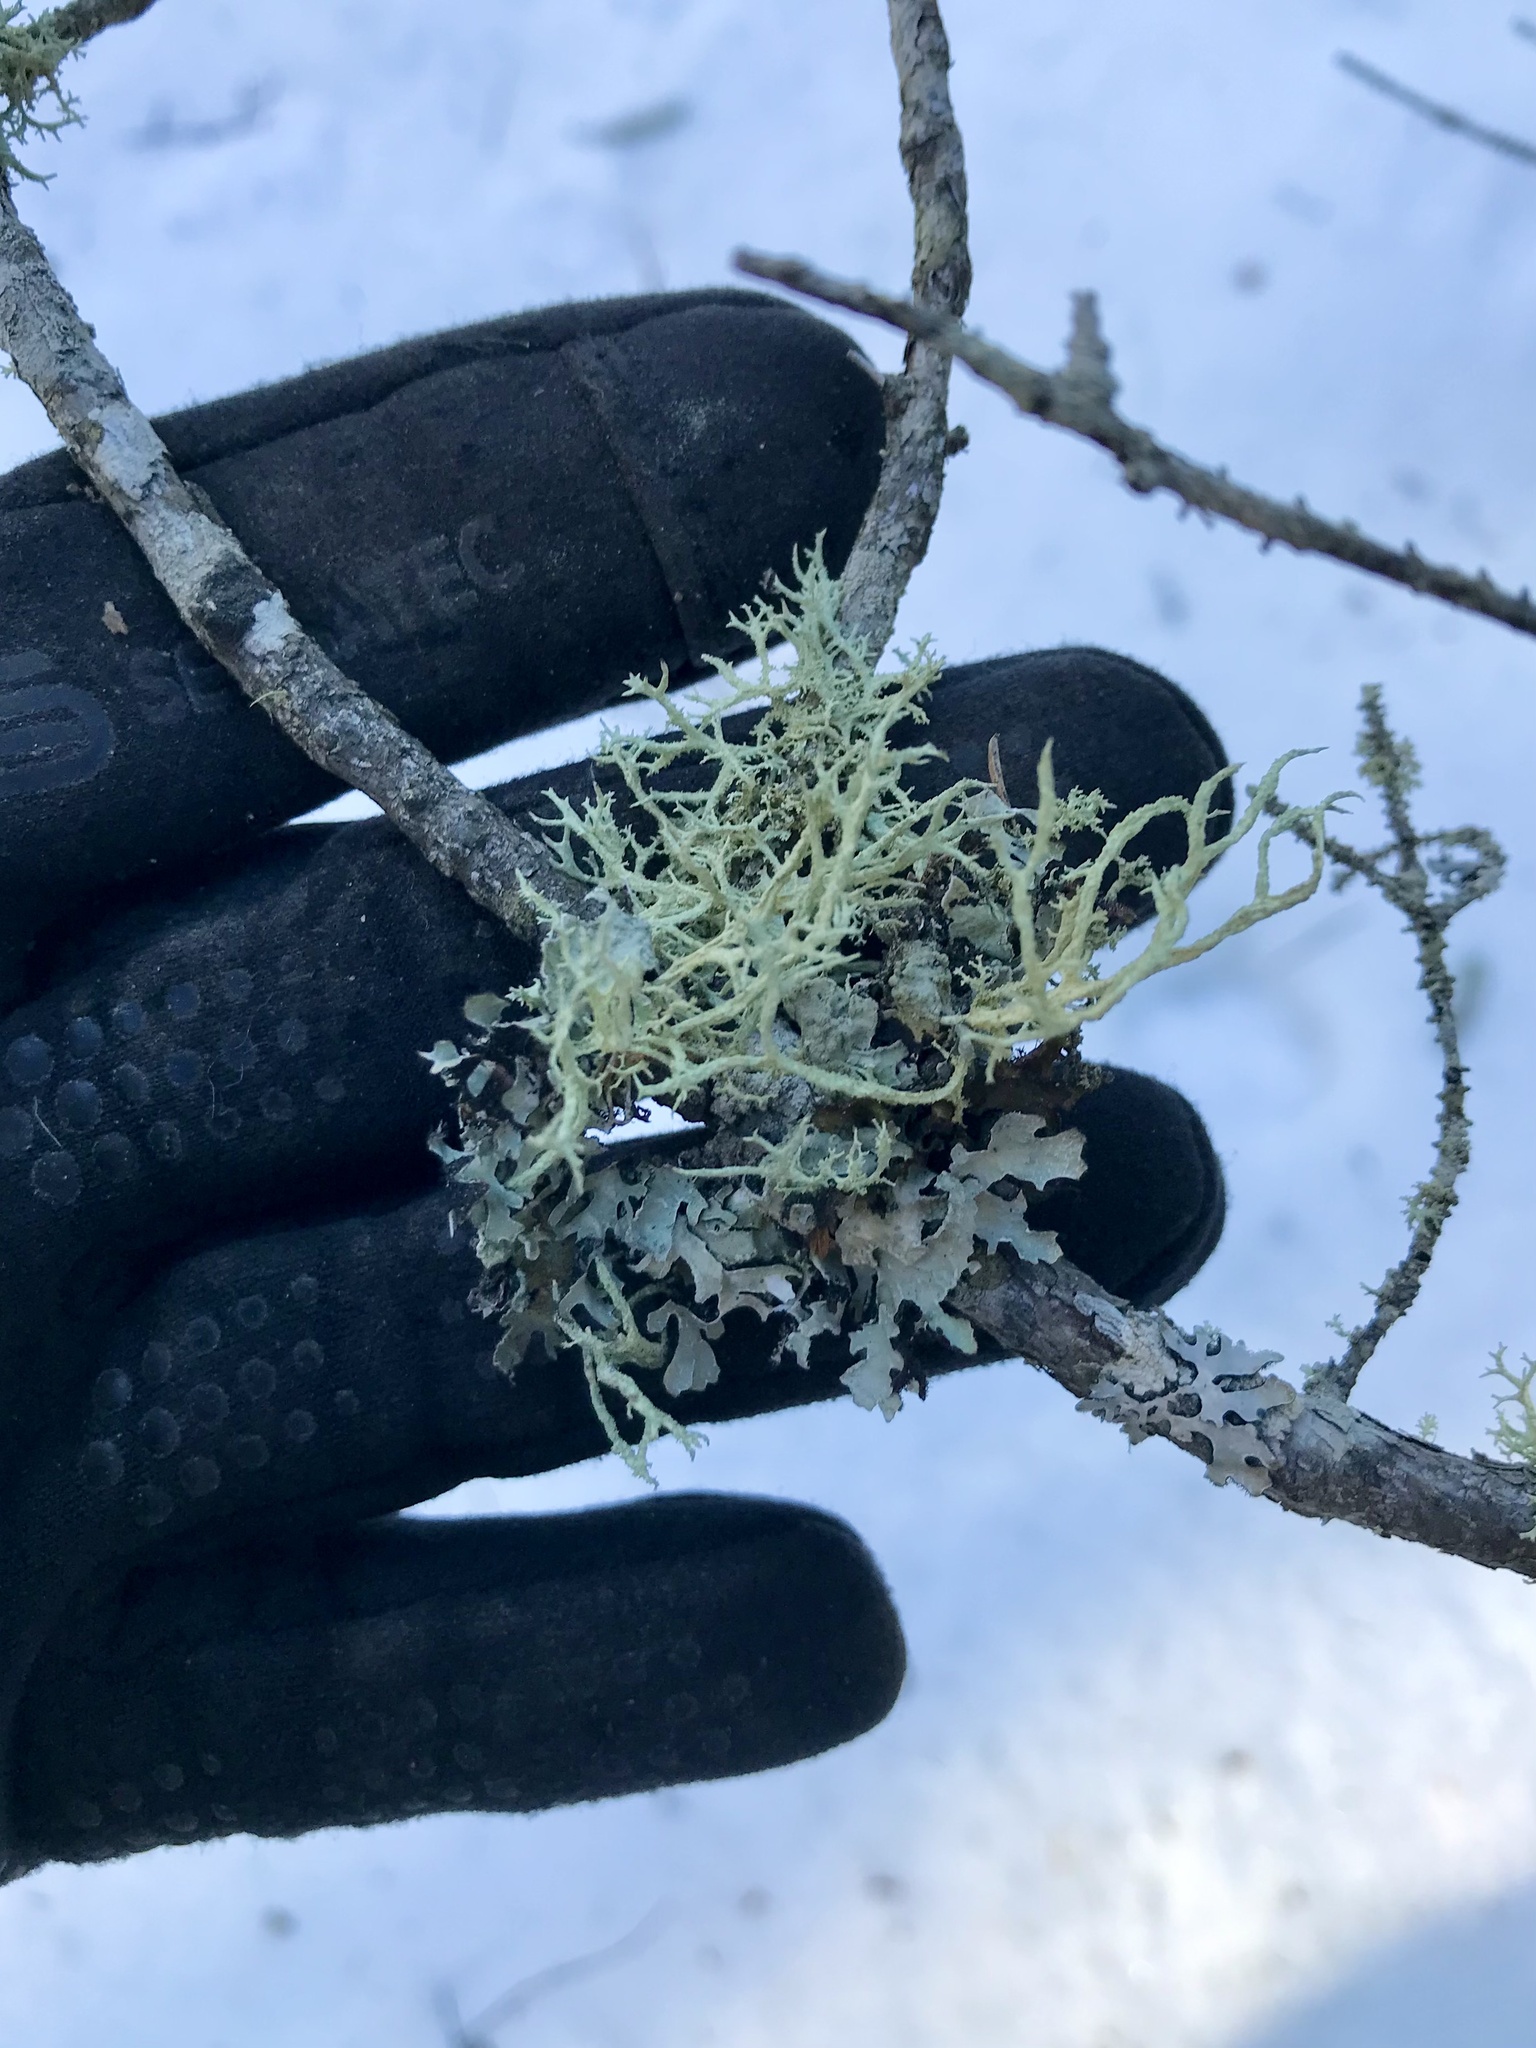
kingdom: Fungi
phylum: Ascomycota
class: Lecanoromycetes
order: Lecanorales
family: Parmeliaceae
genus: Evernia
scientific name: Evernia mesomorpha
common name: Boreal oak moss lichen
